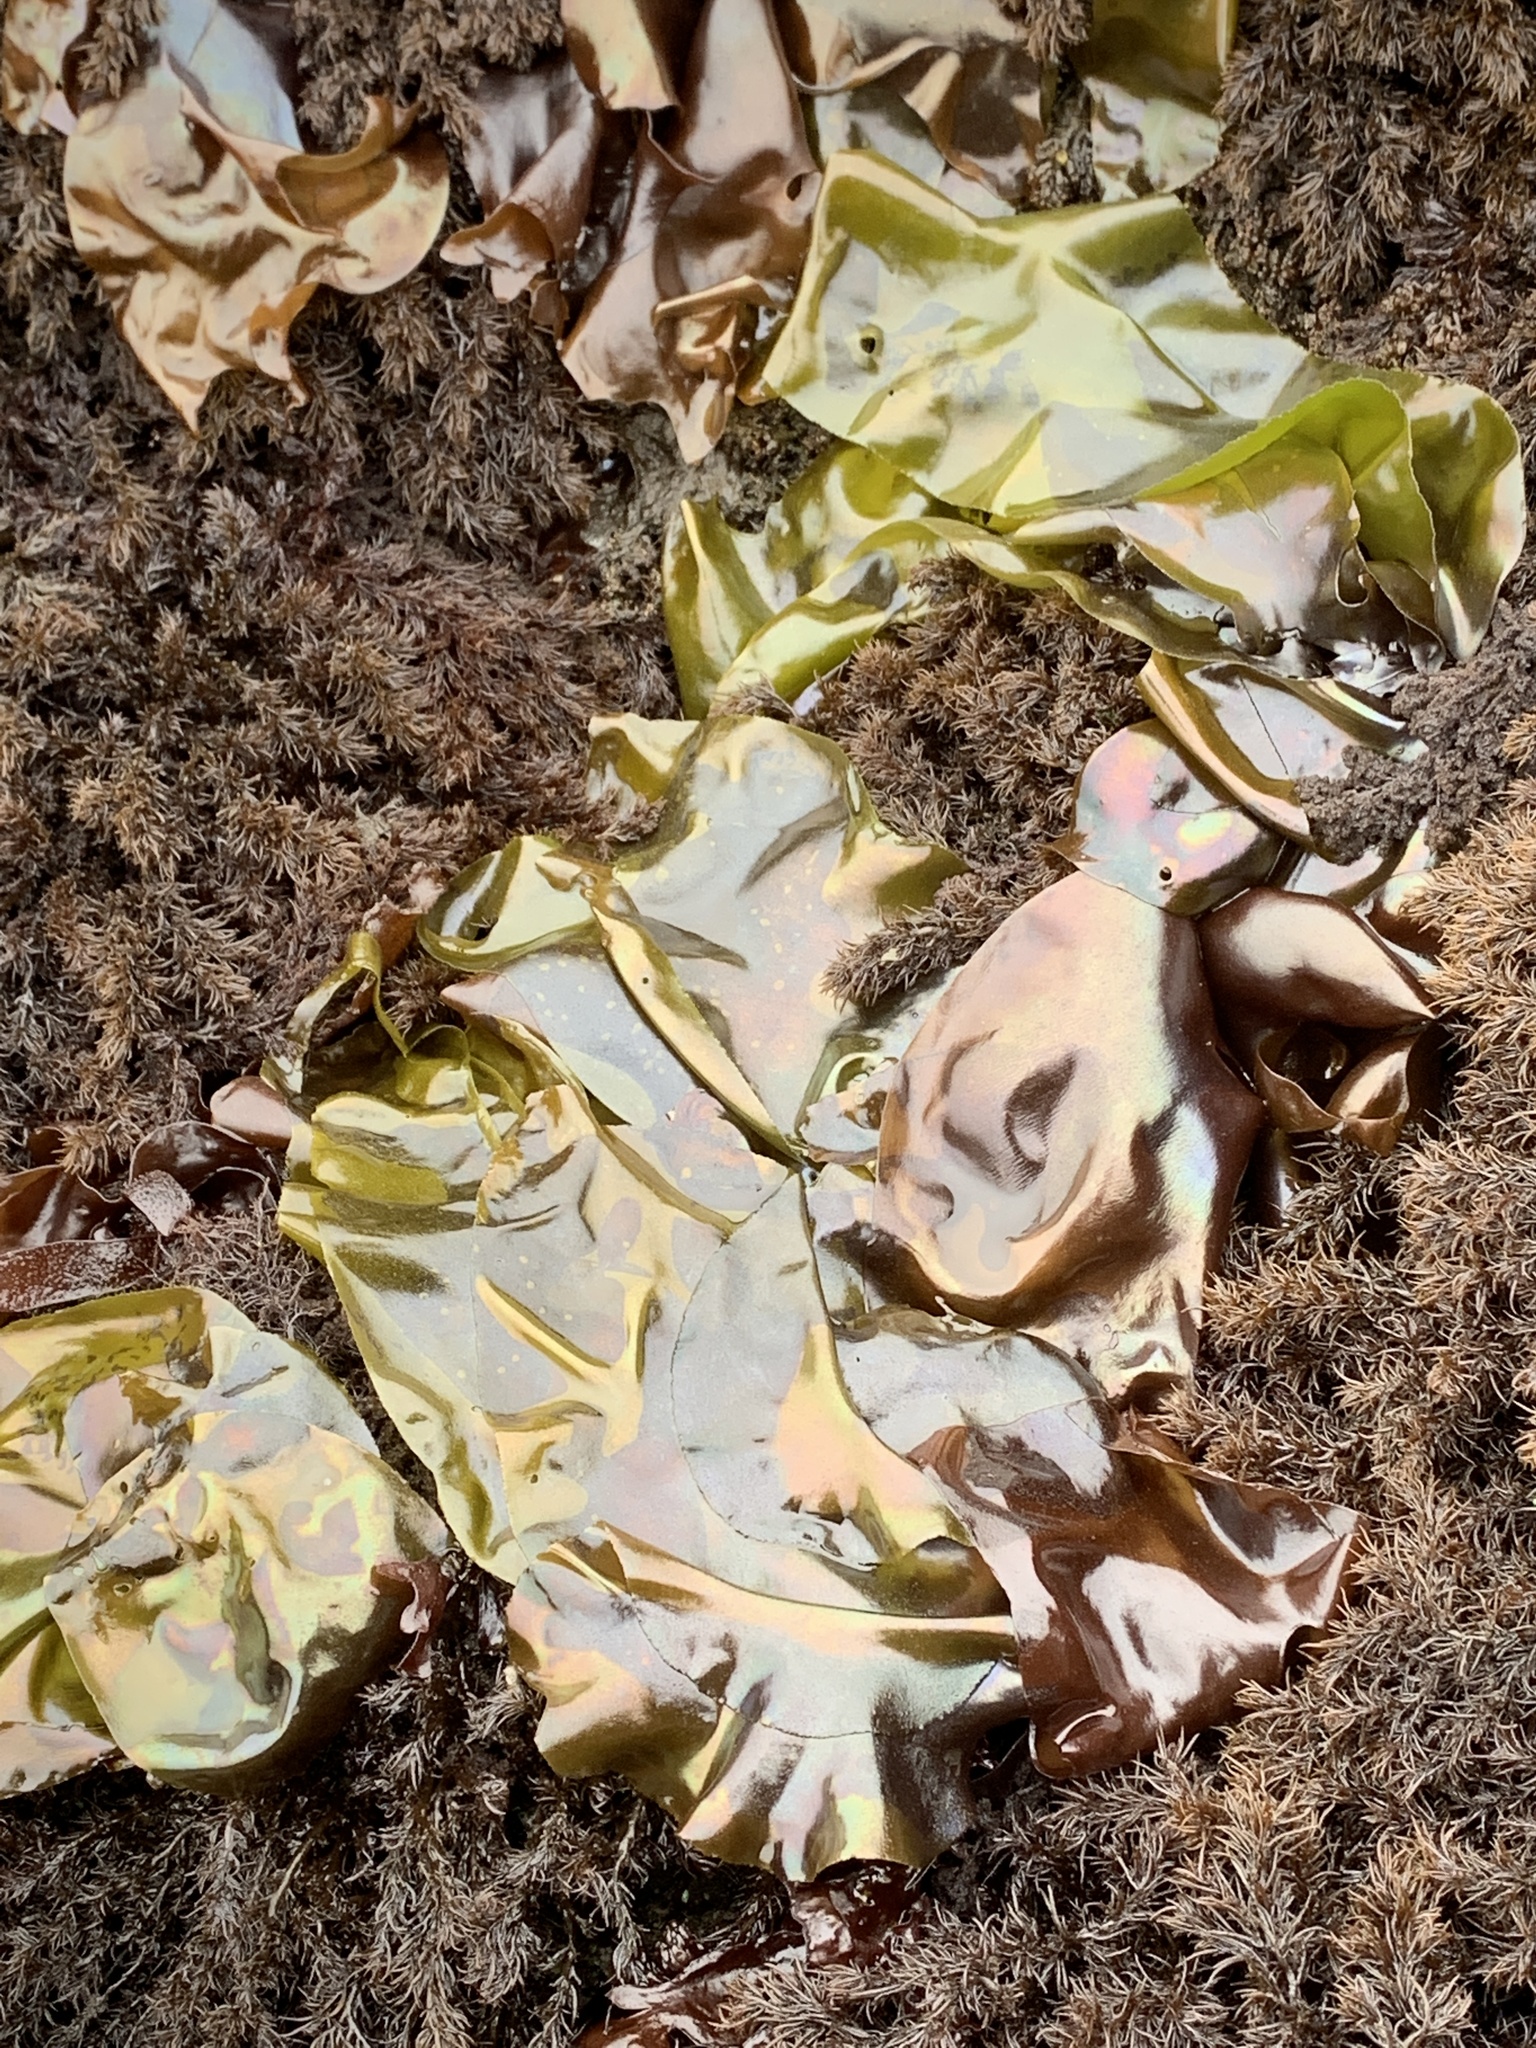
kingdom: Plantae
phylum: Rhodophyta
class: Florideophyceae
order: Gigartinales
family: Gigartinaceae
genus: Mazzaella
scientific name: Mazzaella splendens
